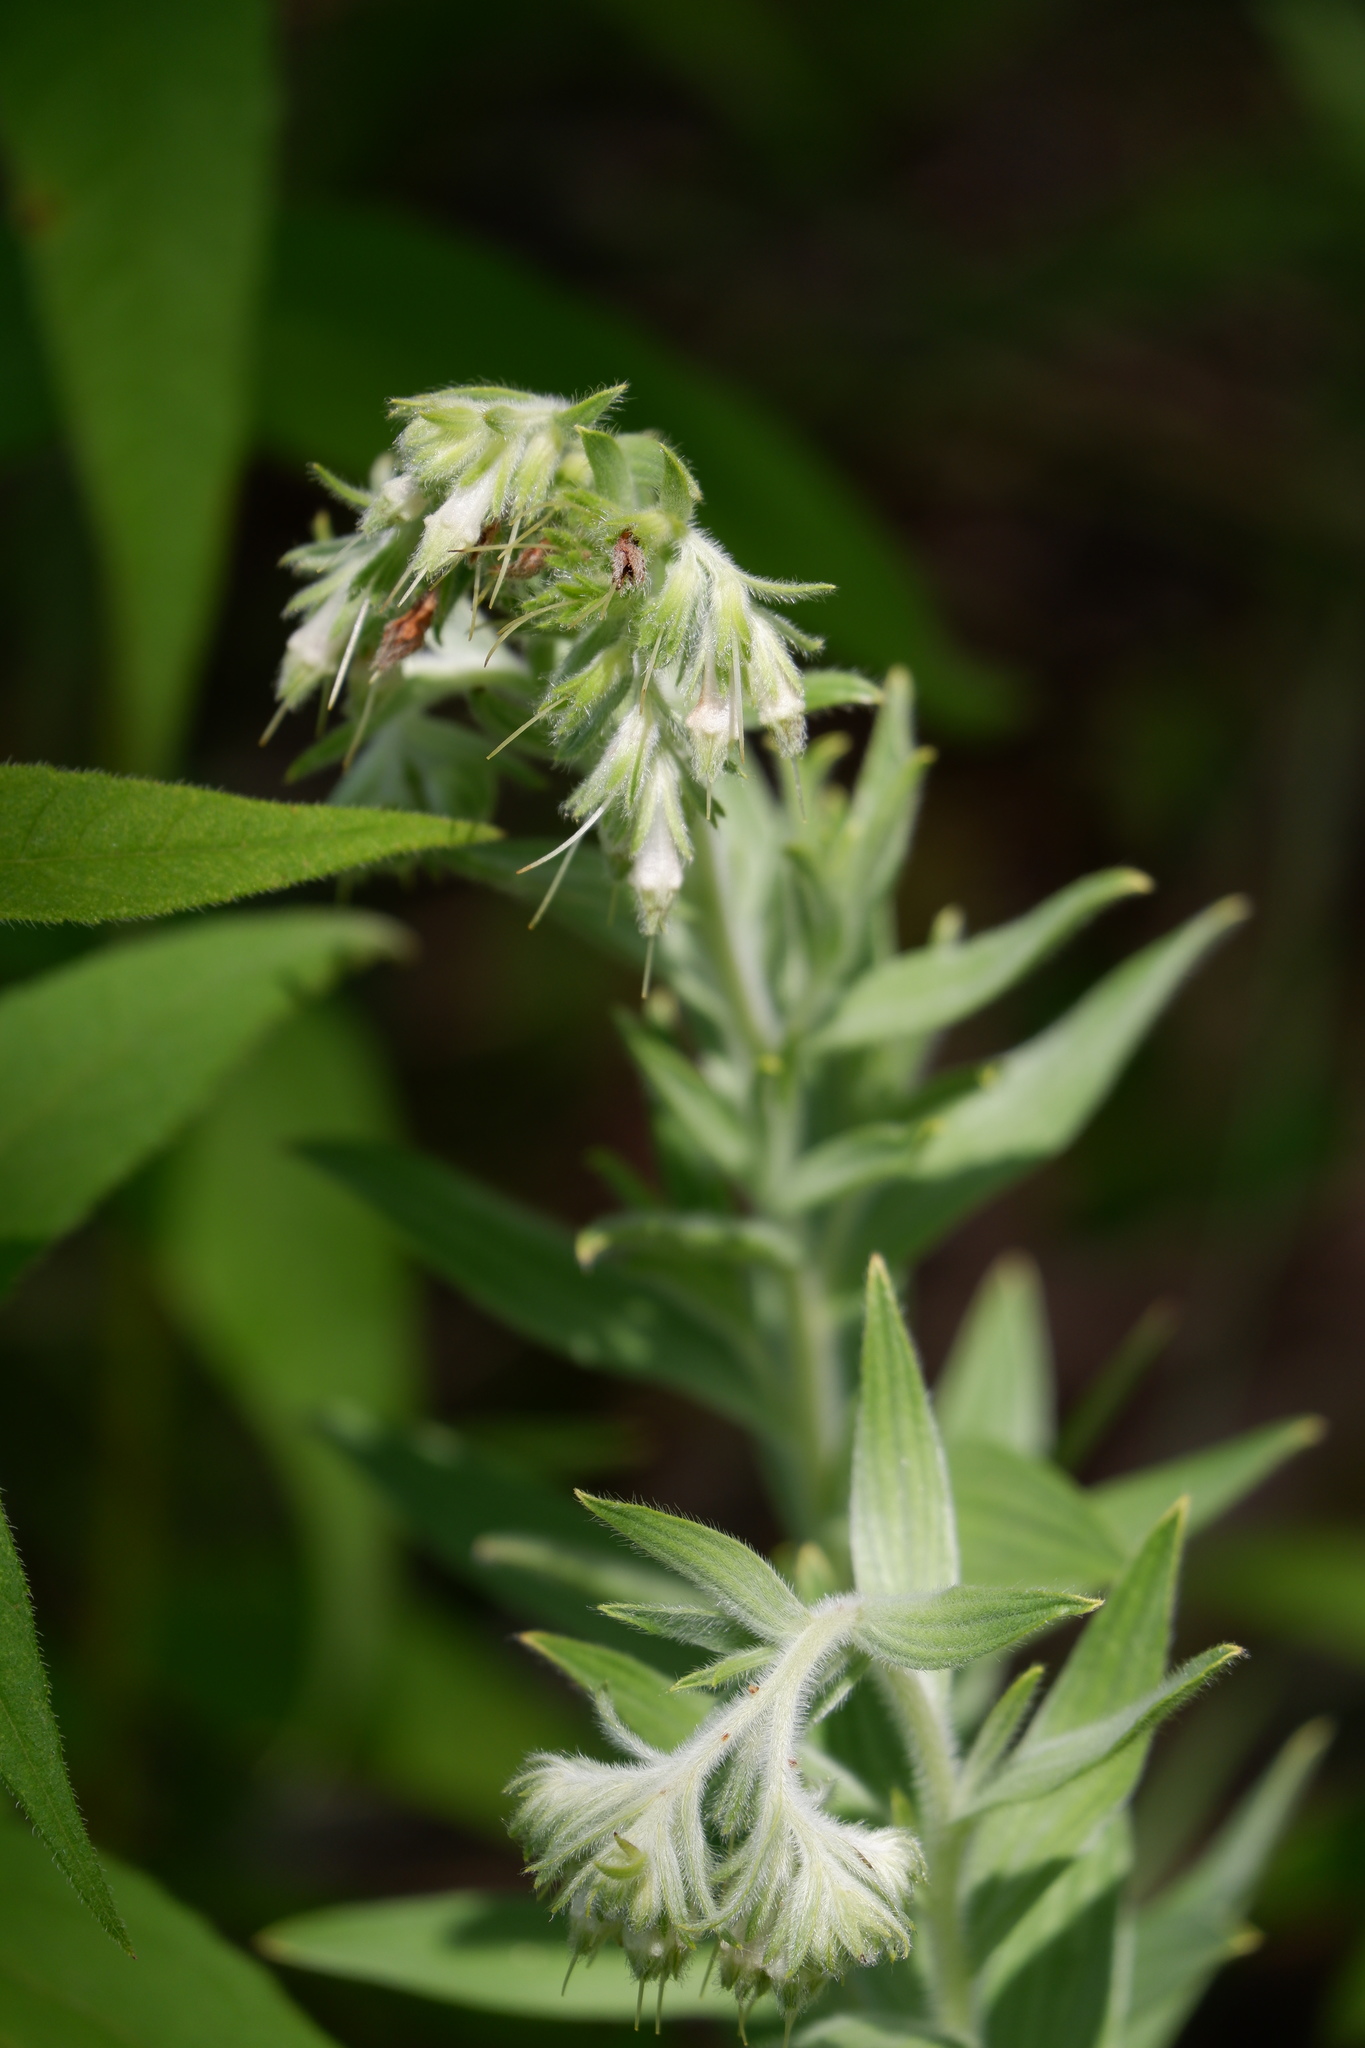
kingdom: Plantae
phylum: Tracheophyta
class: Magnoliopsida
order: Boraginales
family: Boraginaceae
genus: Lithospermum
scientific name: Lithospermum molle
